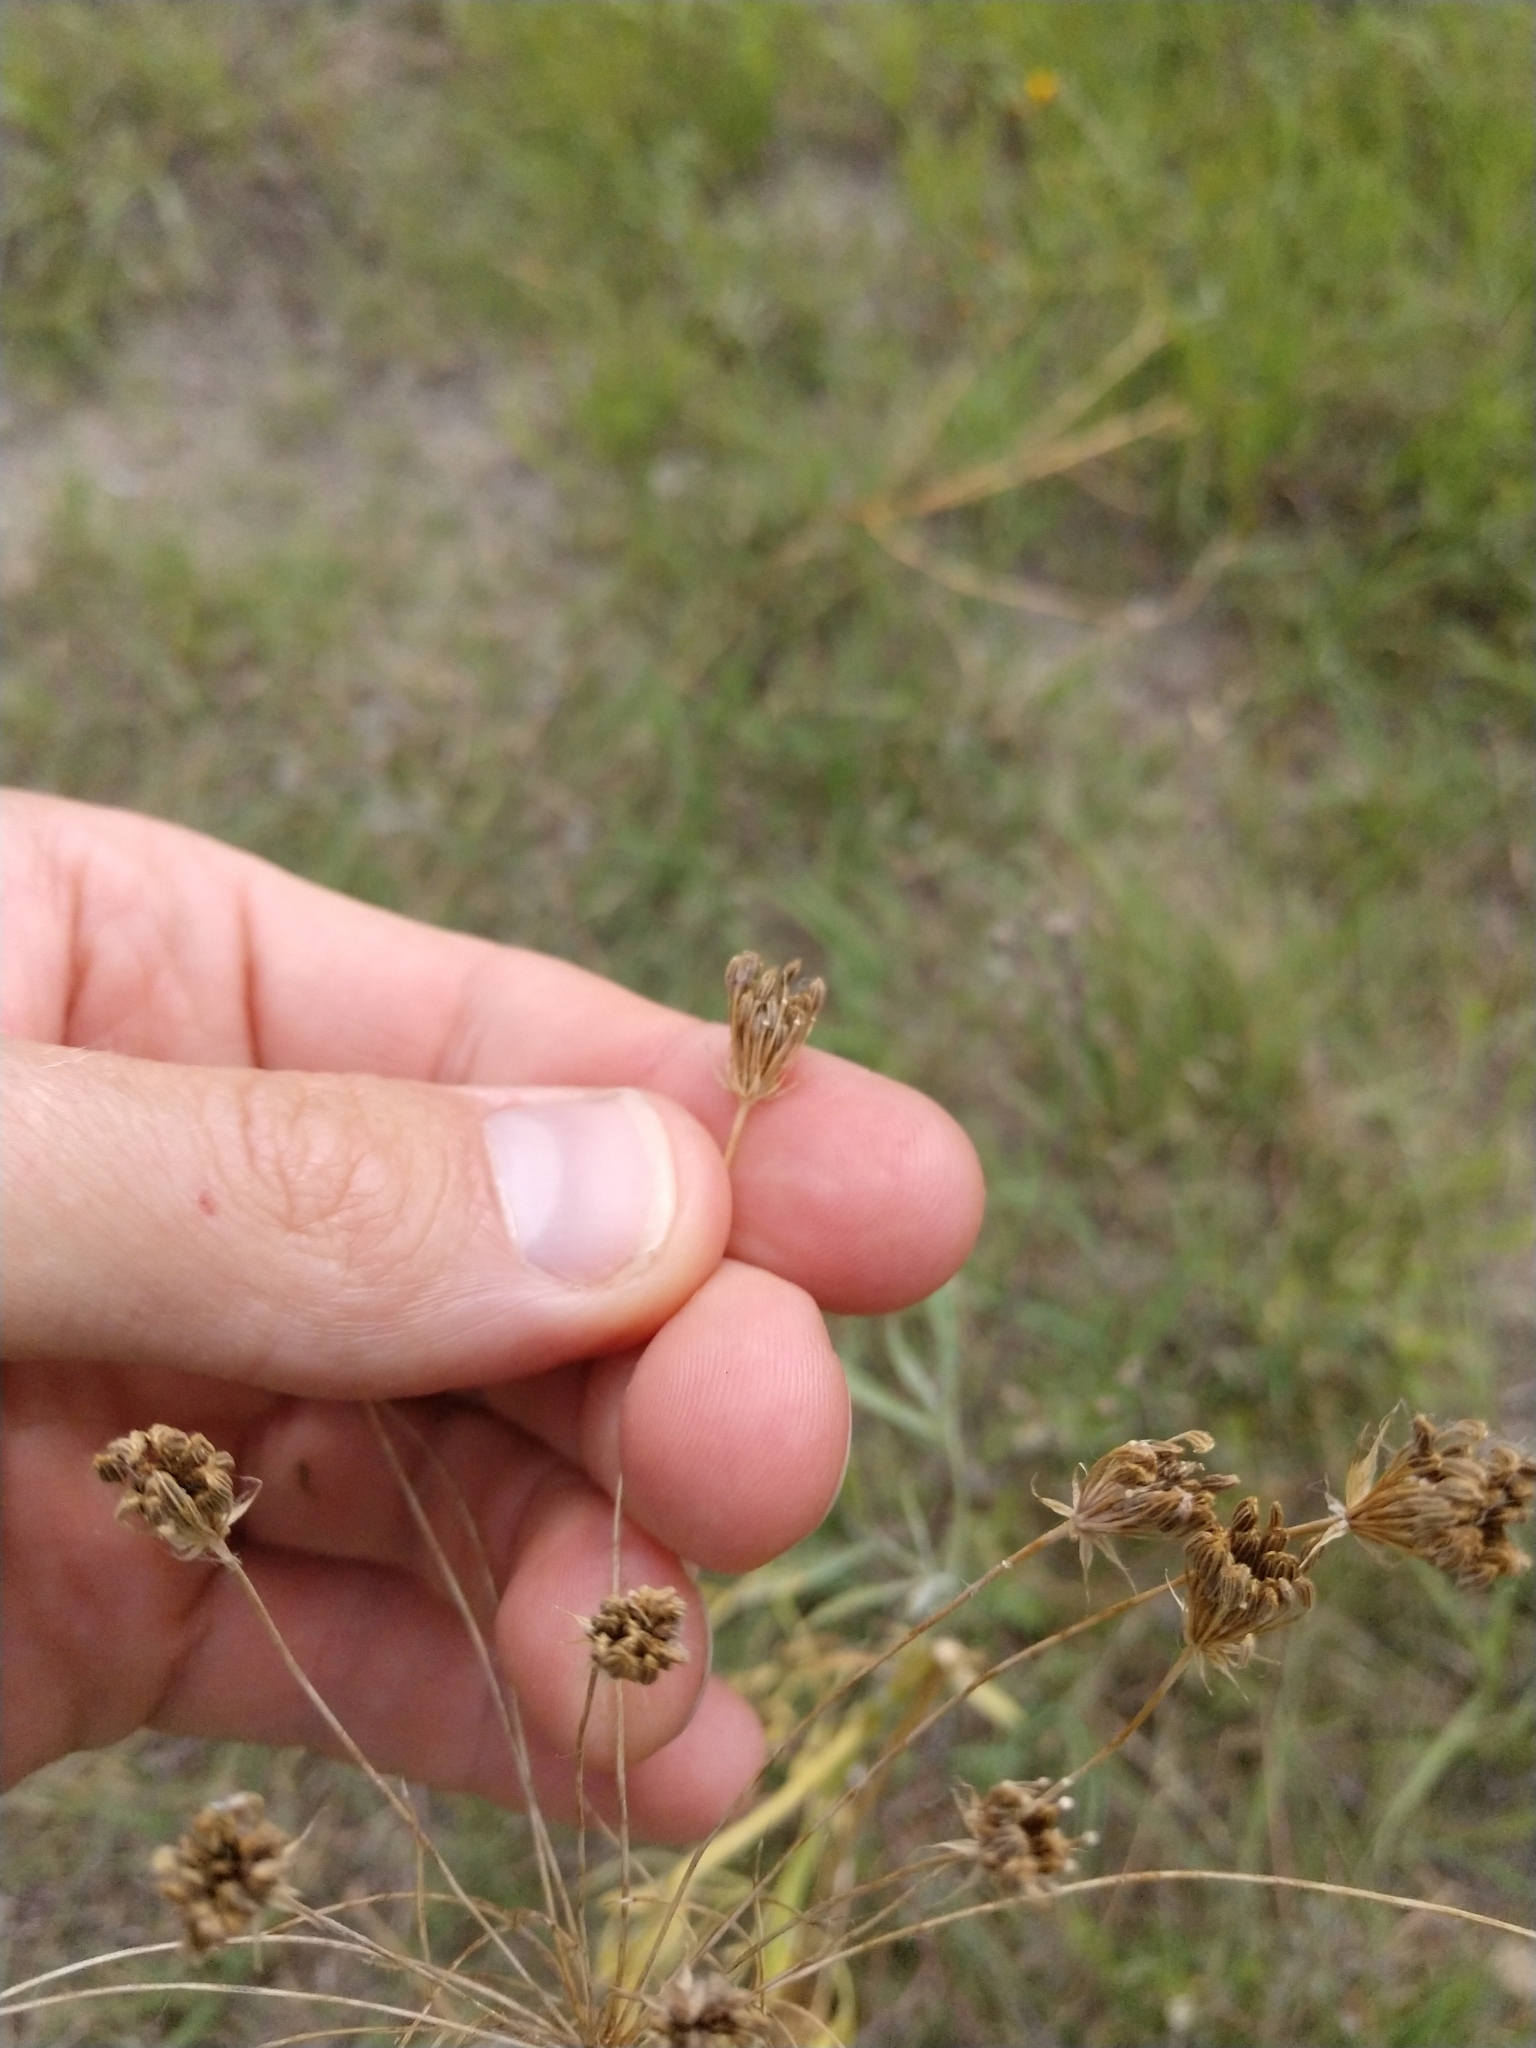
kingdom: Plantae
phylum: Tracheophyta
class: Magnoliopsida
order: Apiales
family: Apiaceae
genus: Ammi
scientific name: Ammi majus
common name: Bullwort
